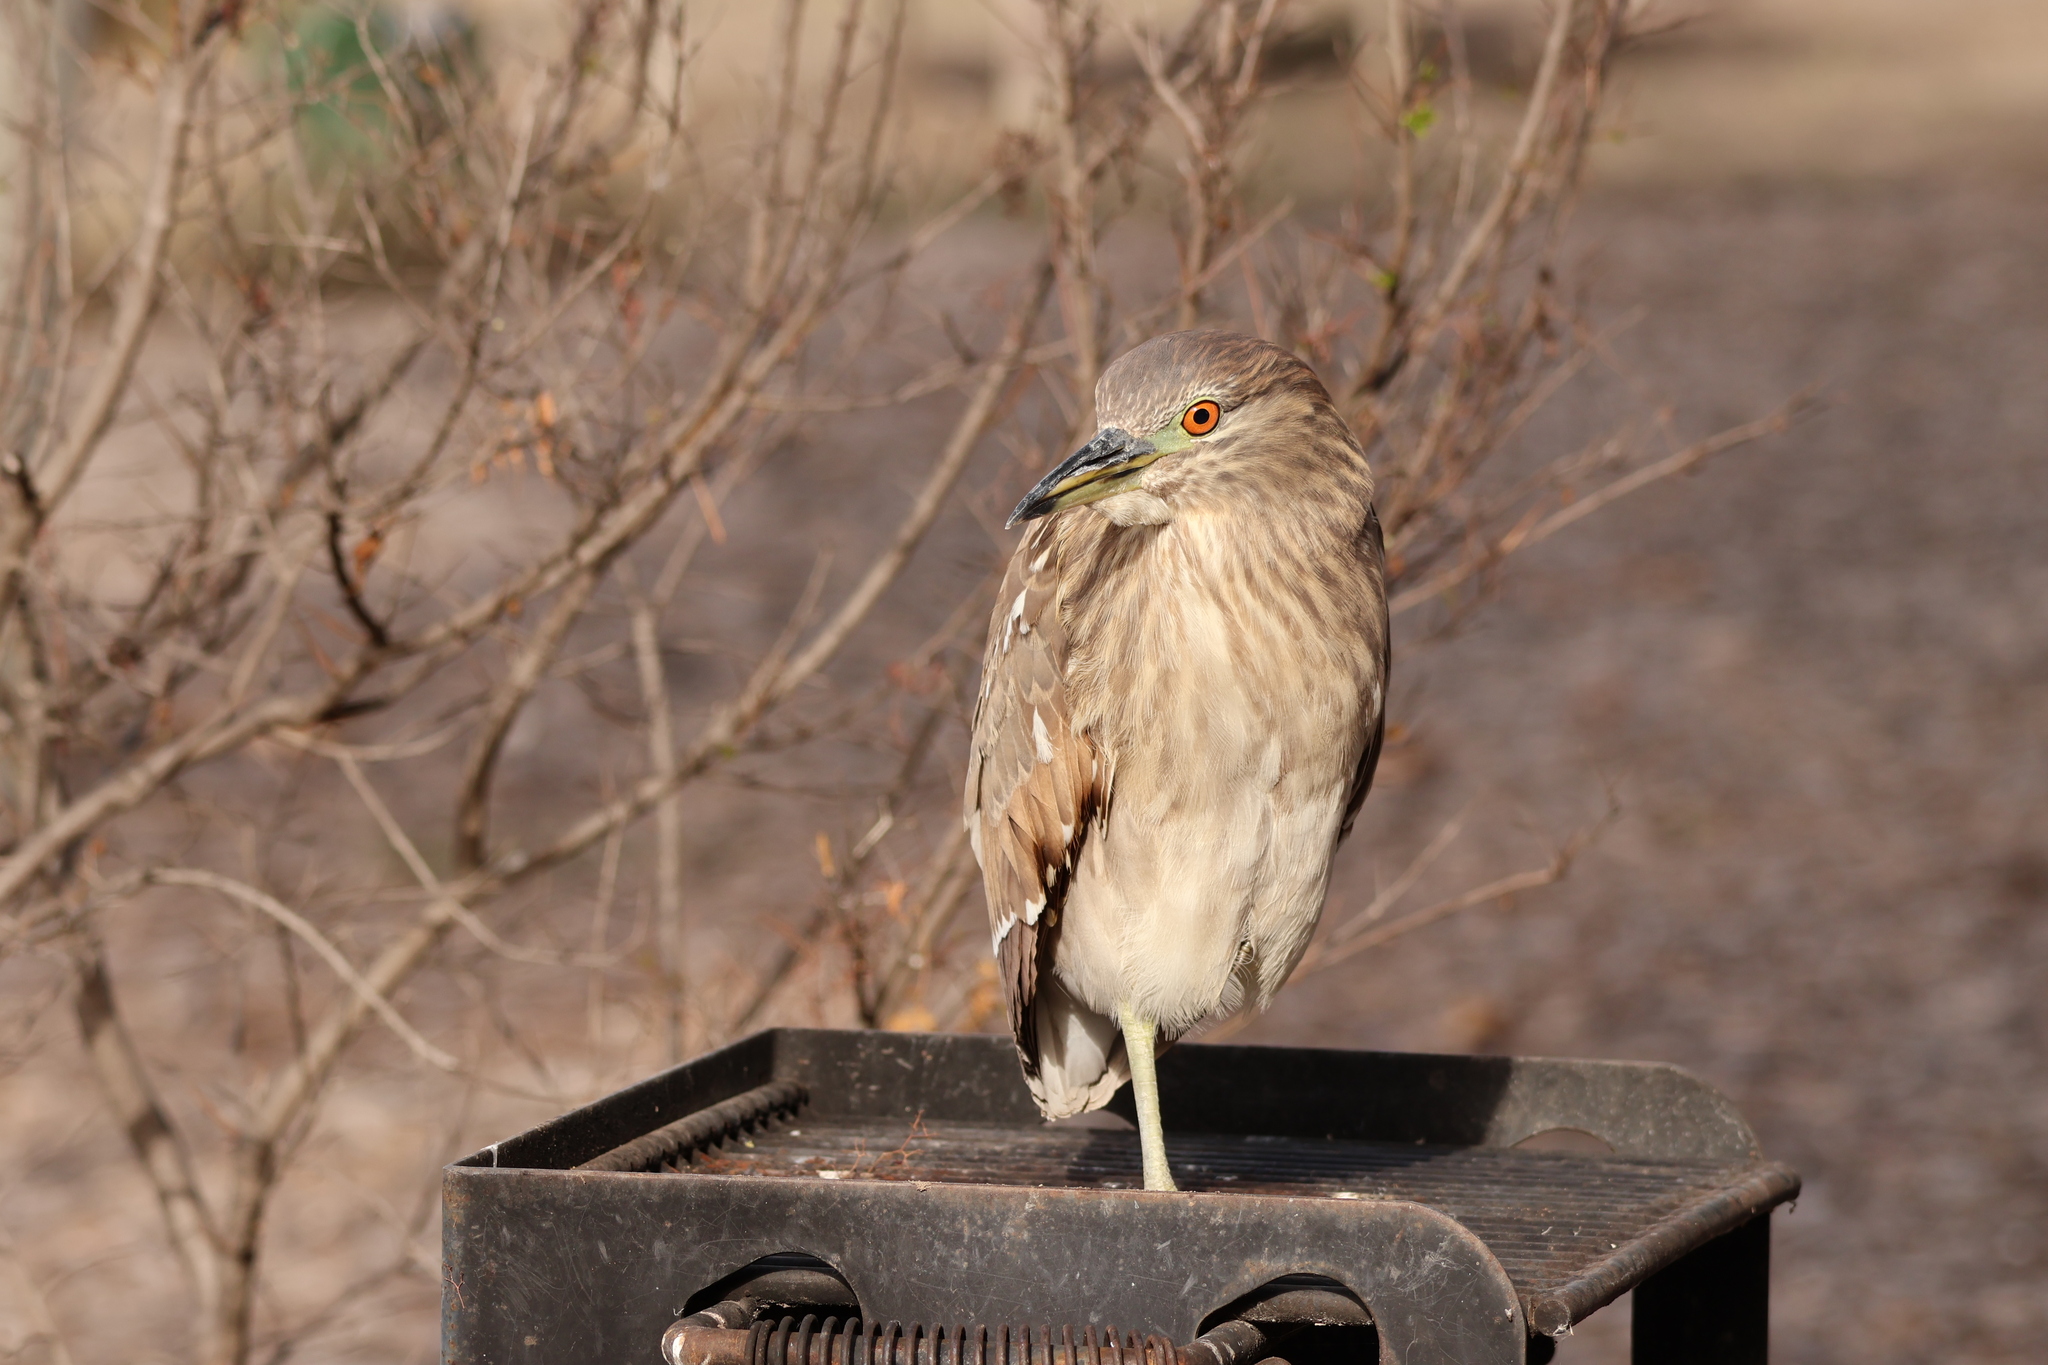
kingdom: Animalia
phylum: Chordata
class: Aves
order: Pelecaniformes
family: Ardeidae
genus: Nycticorax
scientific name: Nycticorax nycticorax
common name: Black-crowned night heron
